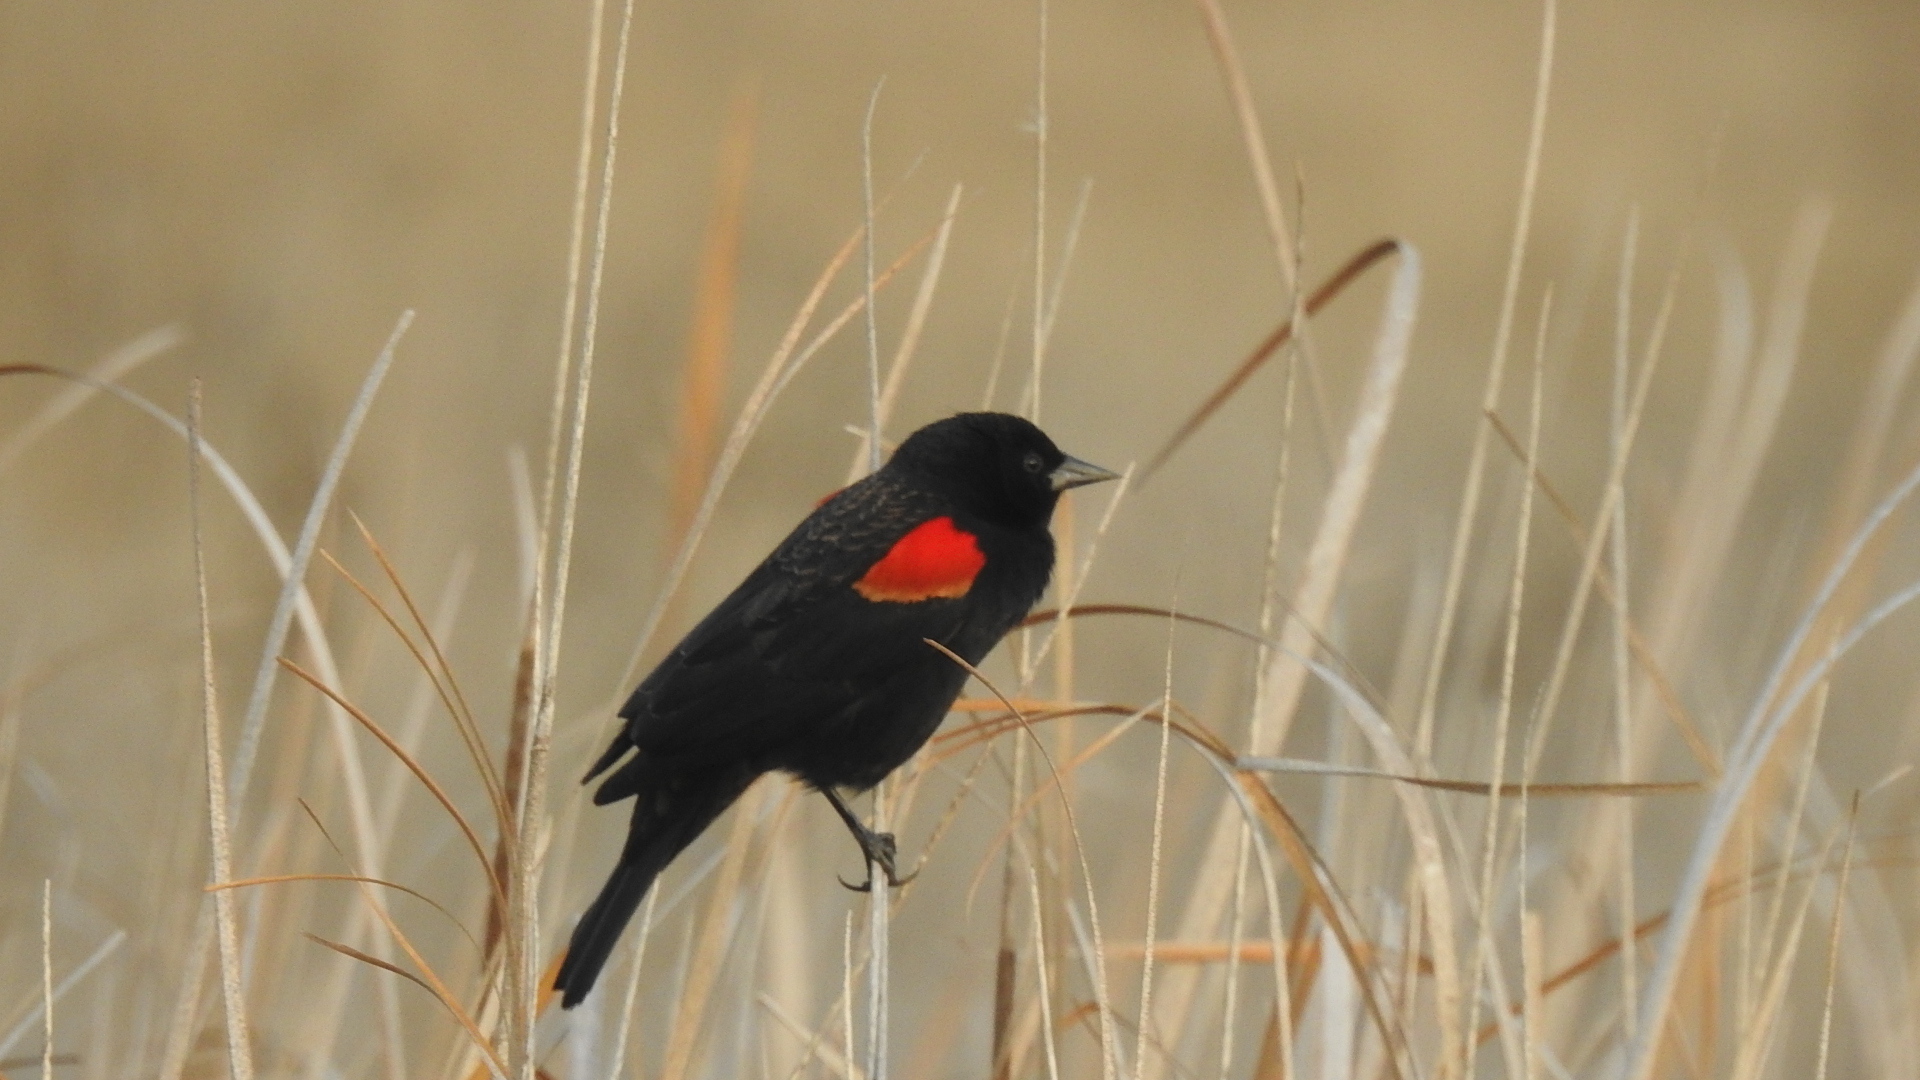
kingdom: Animalia
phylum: Chordata
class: Aves
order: Passeriformes
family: Icteridae
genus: Agelaius
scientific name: Agelaius phoeniceus
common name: Red-winged blackbird
